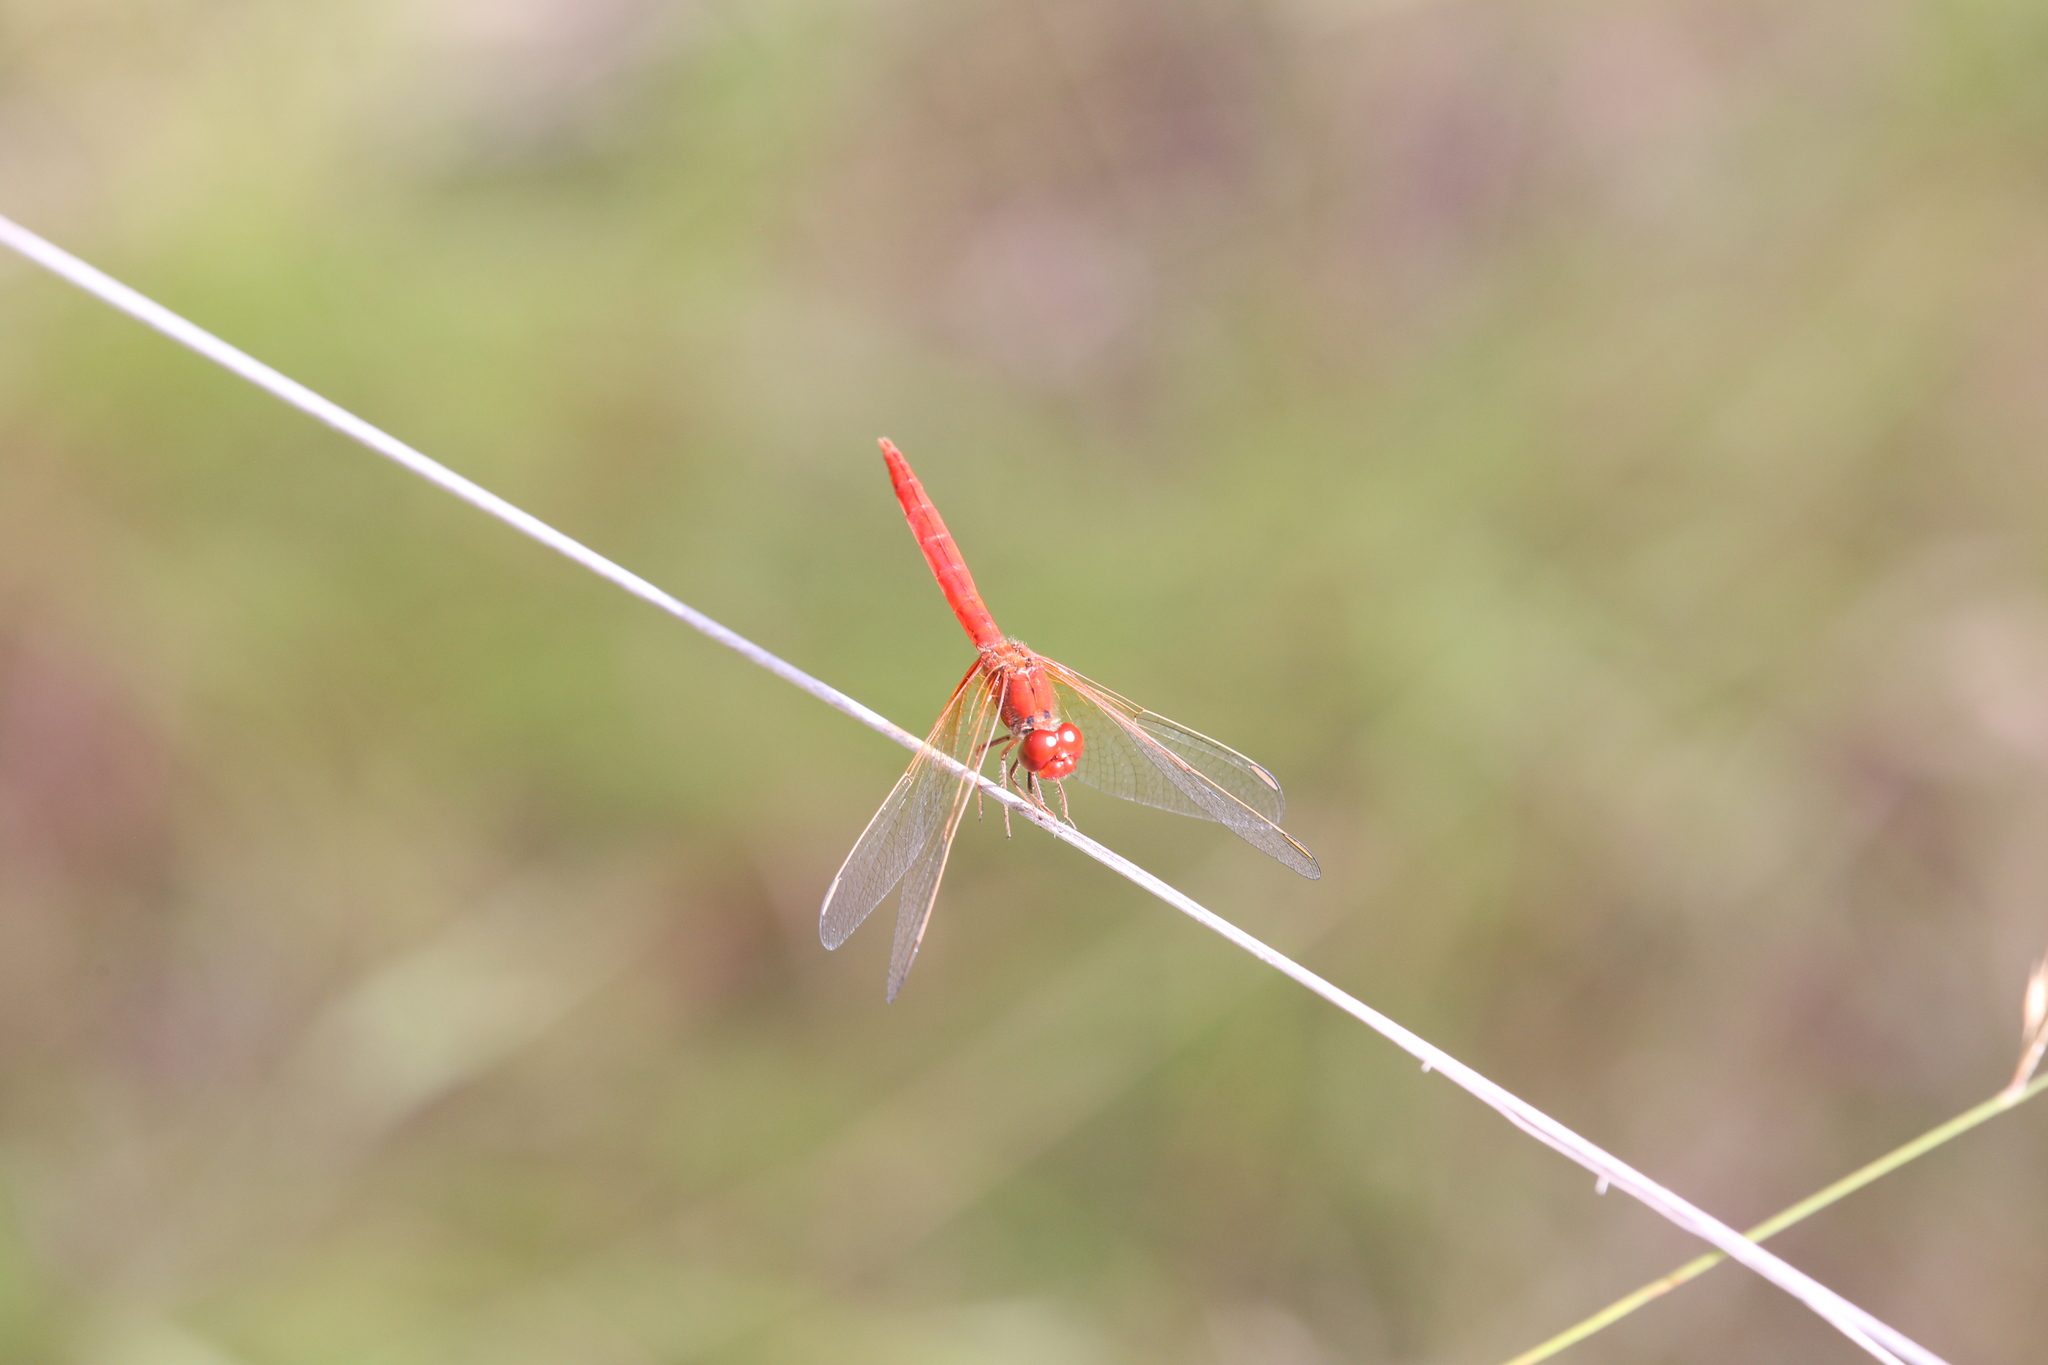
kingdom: Animalia
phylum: Arthropoda
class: Insecta
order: Odonata
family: Libellulidae
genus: Diplacodes
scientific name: Diplacodes haematodes
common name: Scarlet percher
